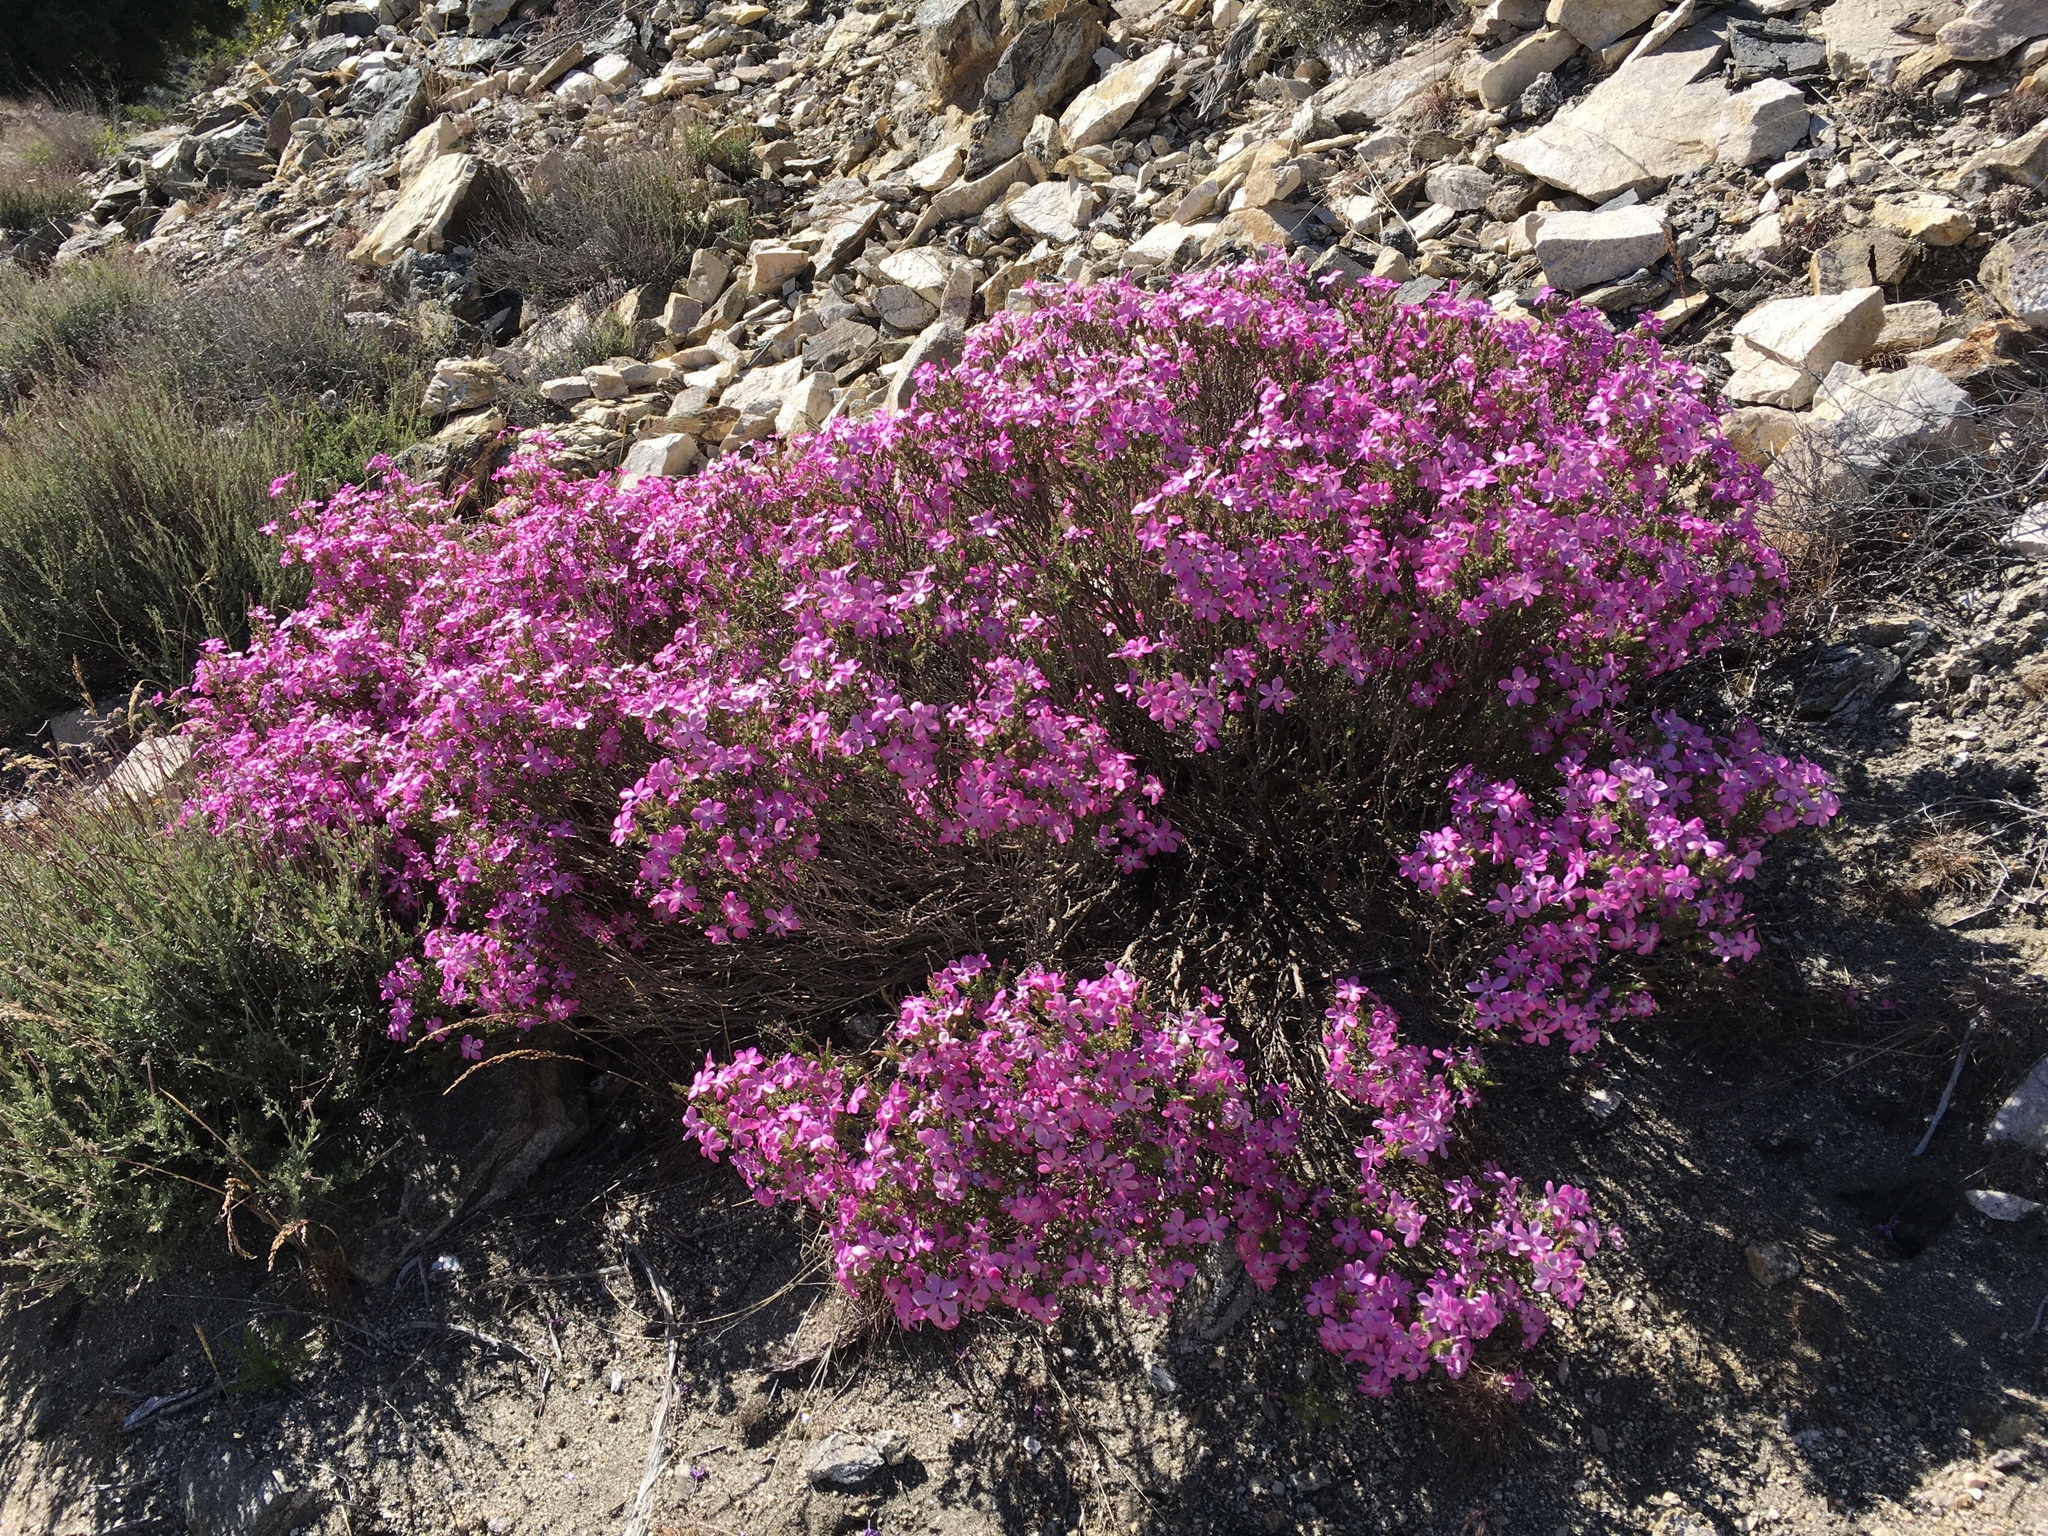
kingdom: Plantae
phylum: Tracheophyta
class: Magnoliopsida
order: Ericales
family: Polemoniaceae
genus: Linanthus
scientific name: Linanthus californicus
